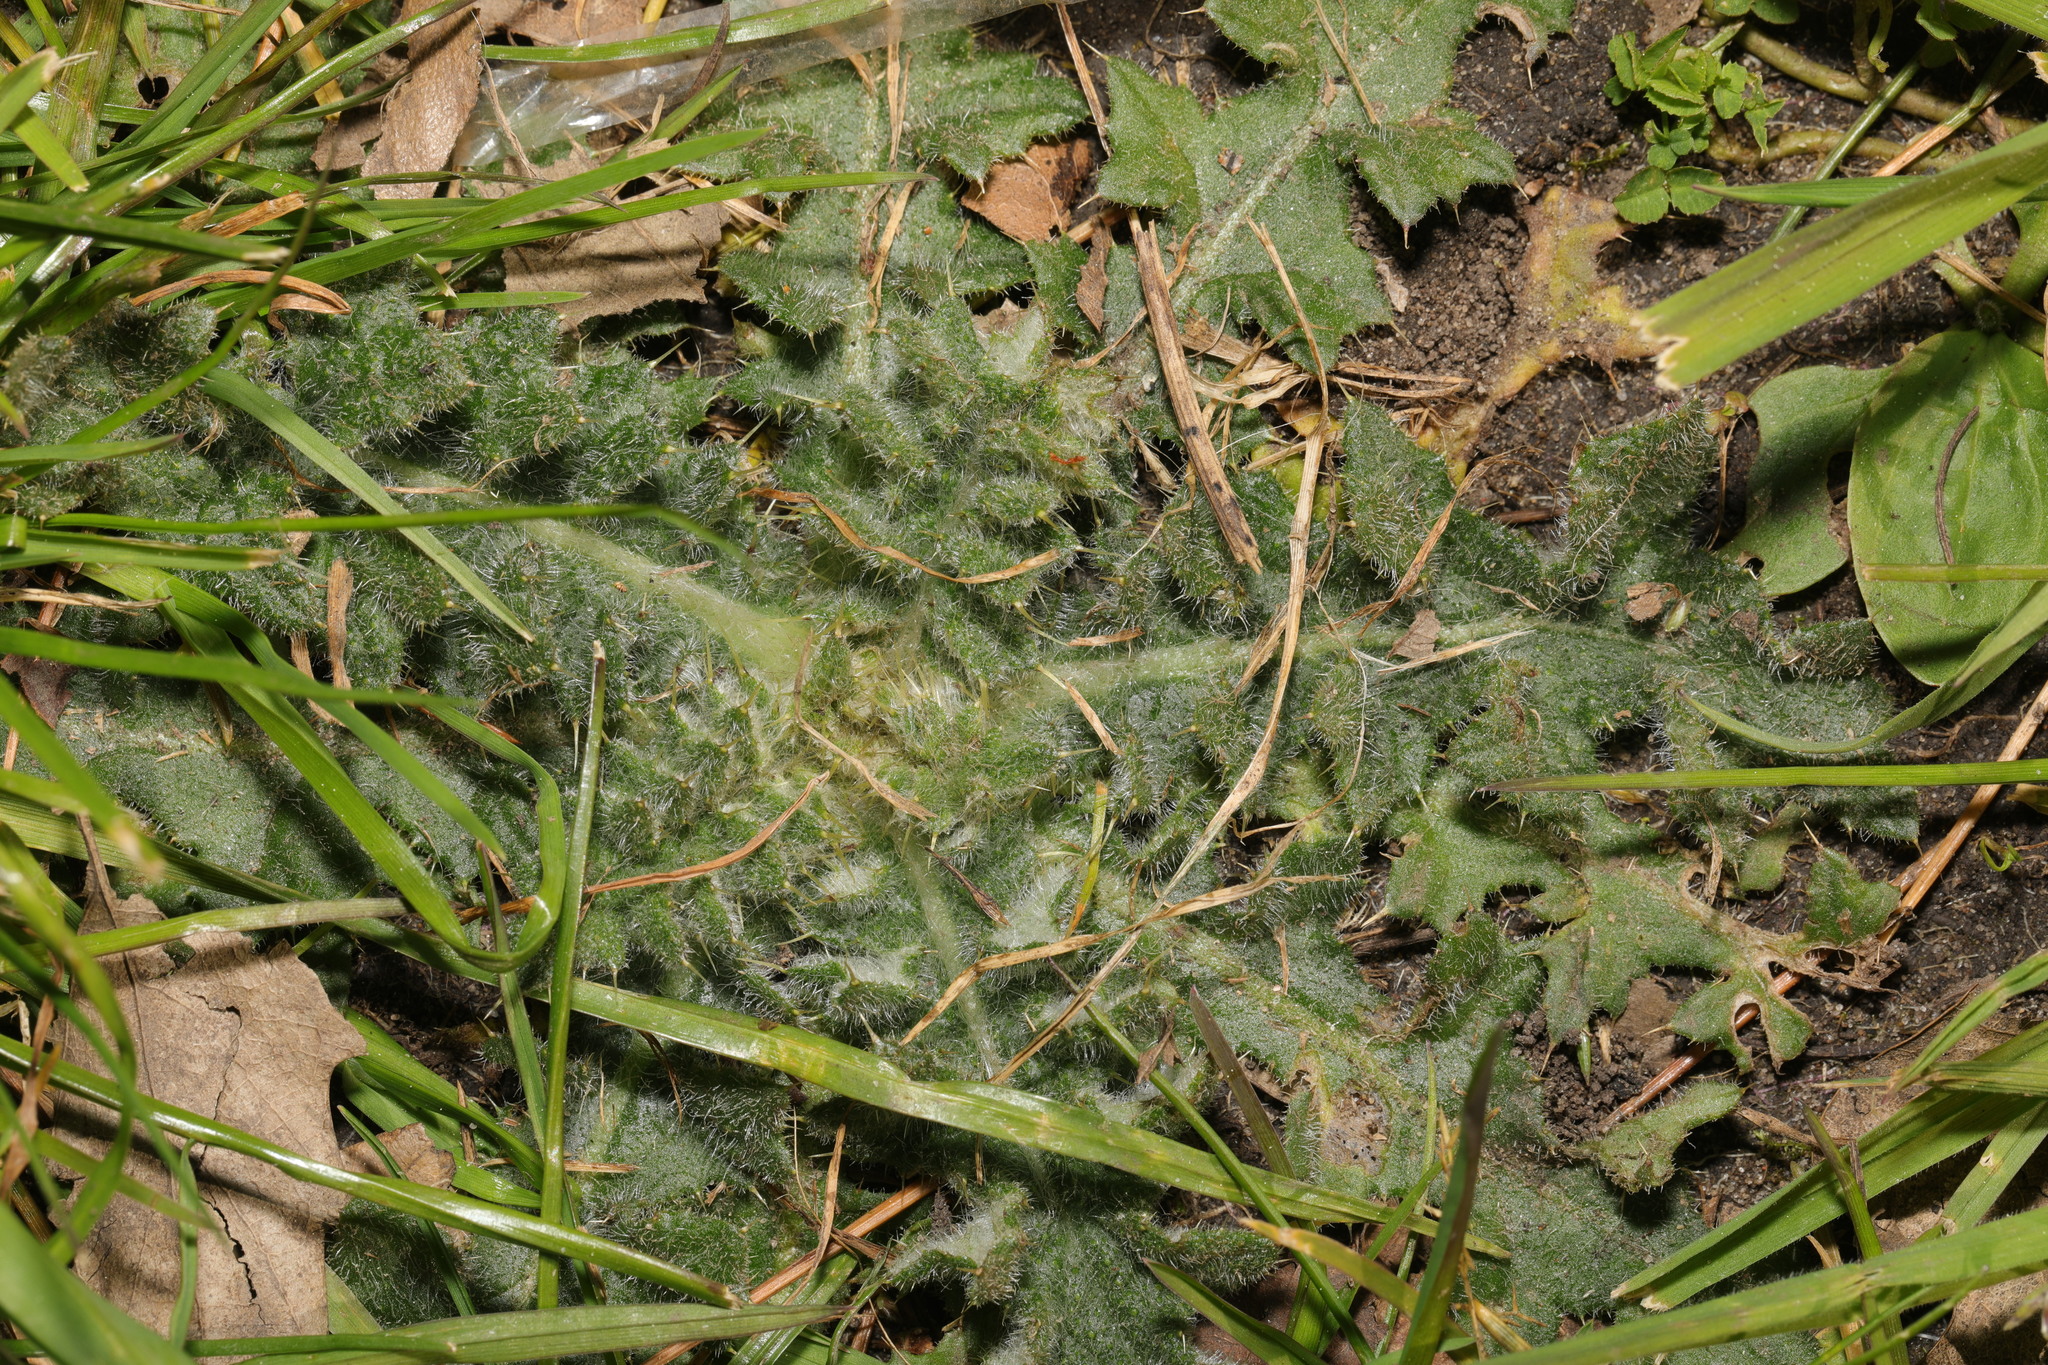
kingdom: Plantae
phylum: Tracheophyta
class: Magnoliopsida
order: Asterales
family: Asteraceae
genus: Cirsium
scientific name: Cirsium vulgare
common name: Bull thistle
